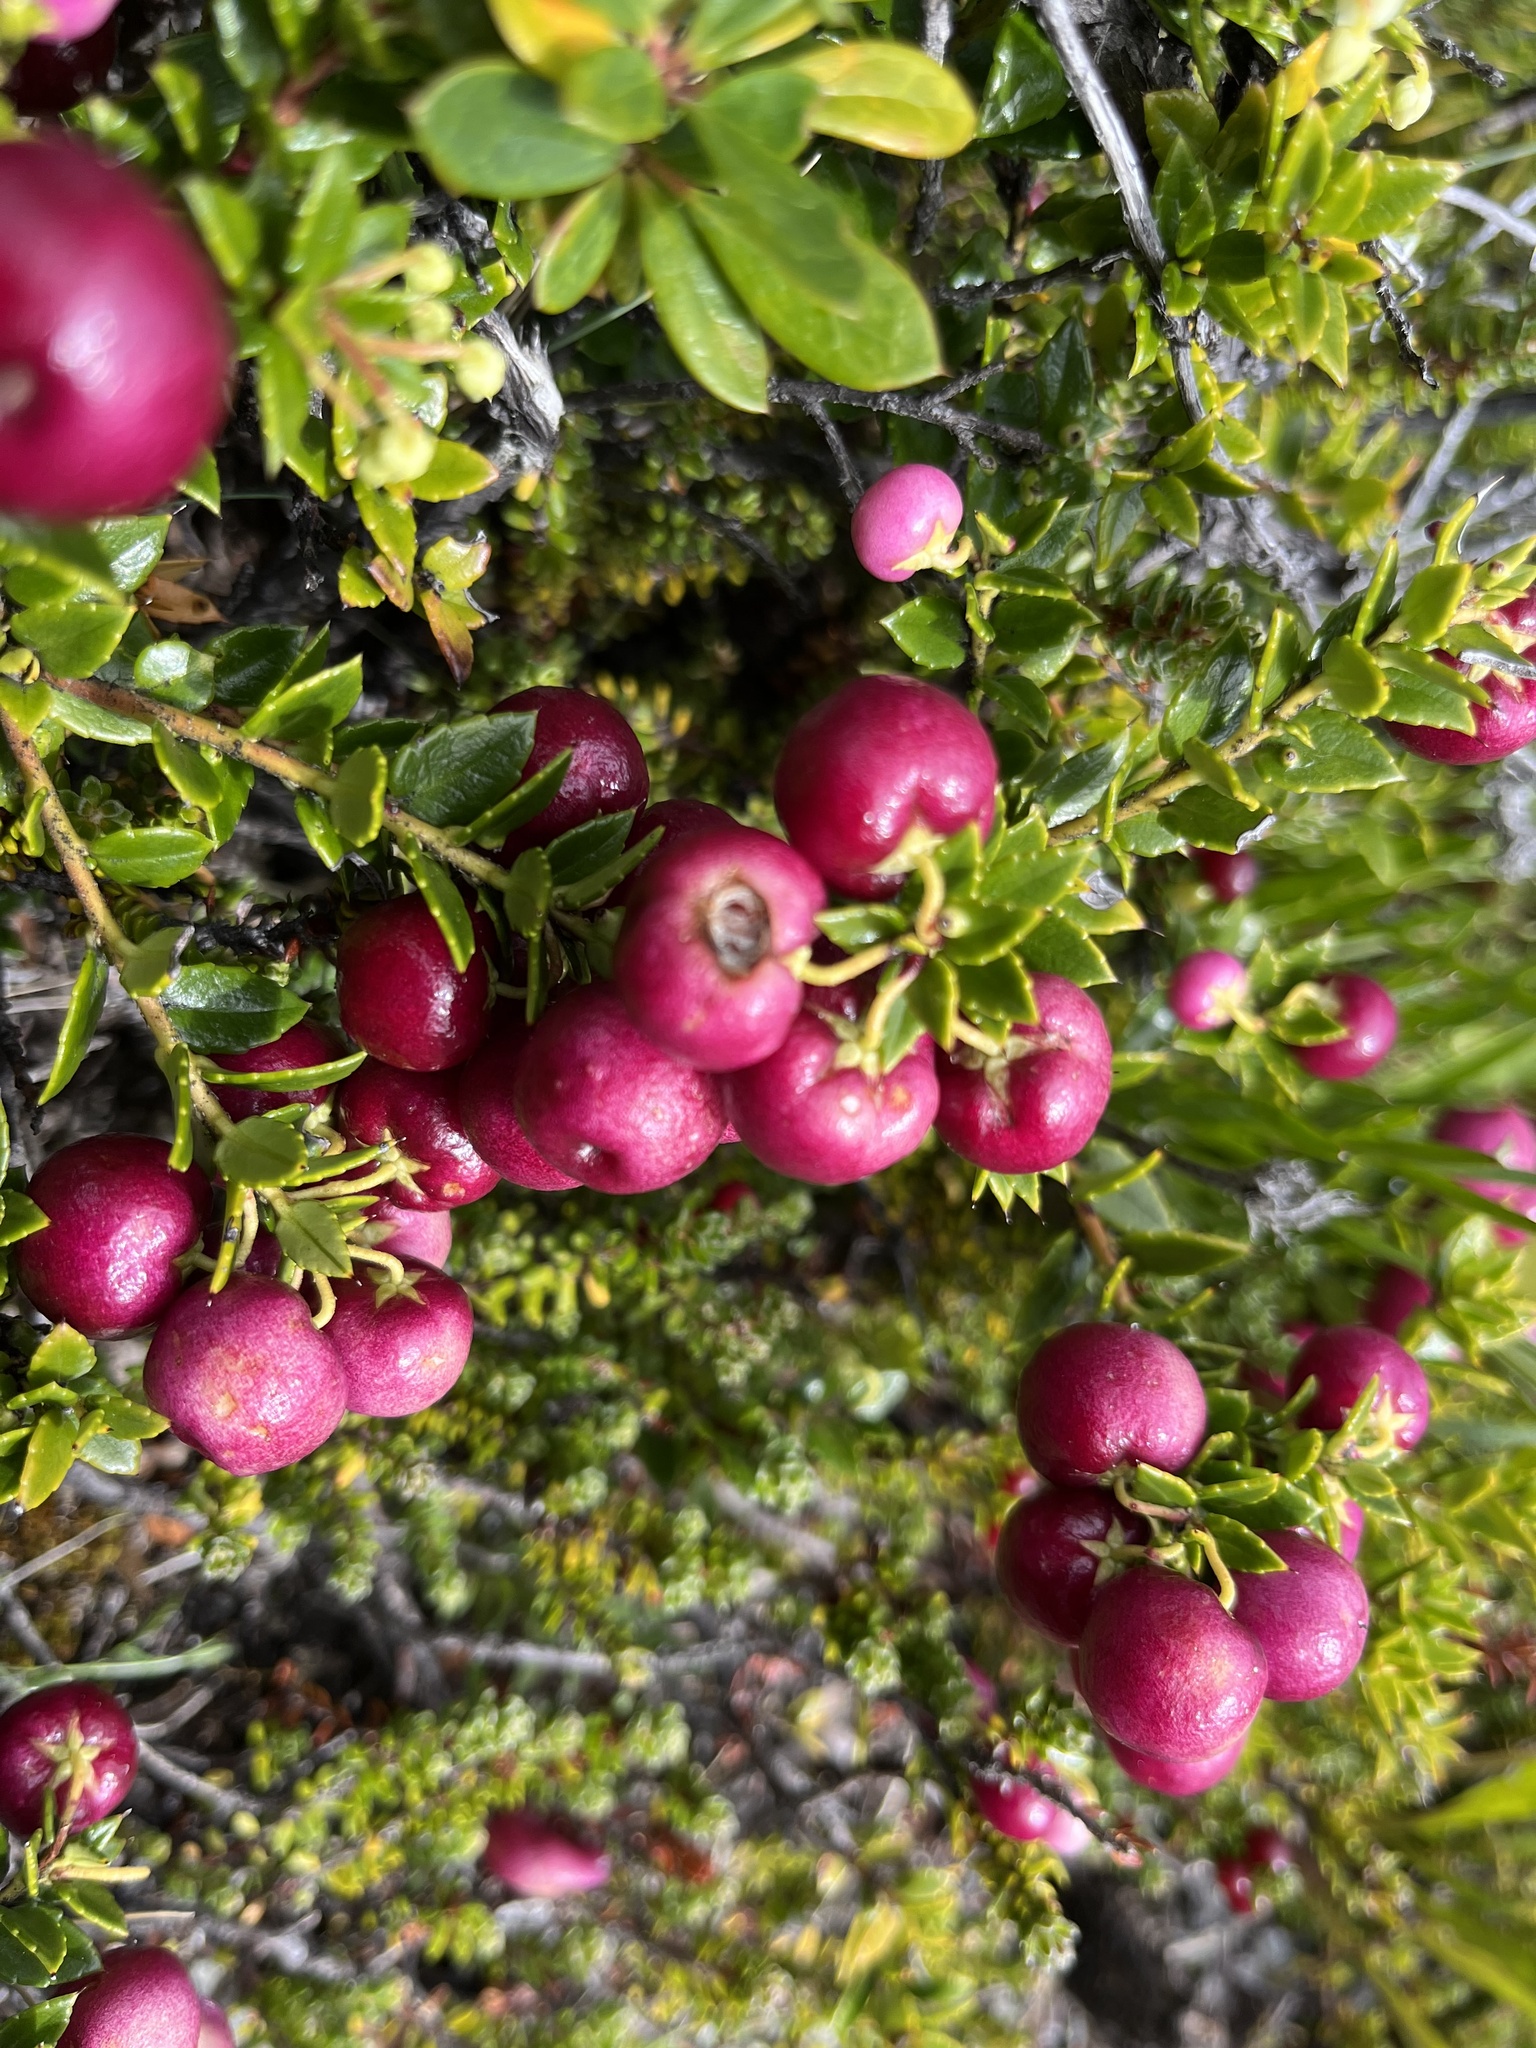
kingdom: Plantae
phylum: Tracheophyta
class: Magnoliopsida
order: Ericales
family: Ericaceae
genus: Gaultheria
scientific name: Gaultheria mucronata
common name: Prickly heath
